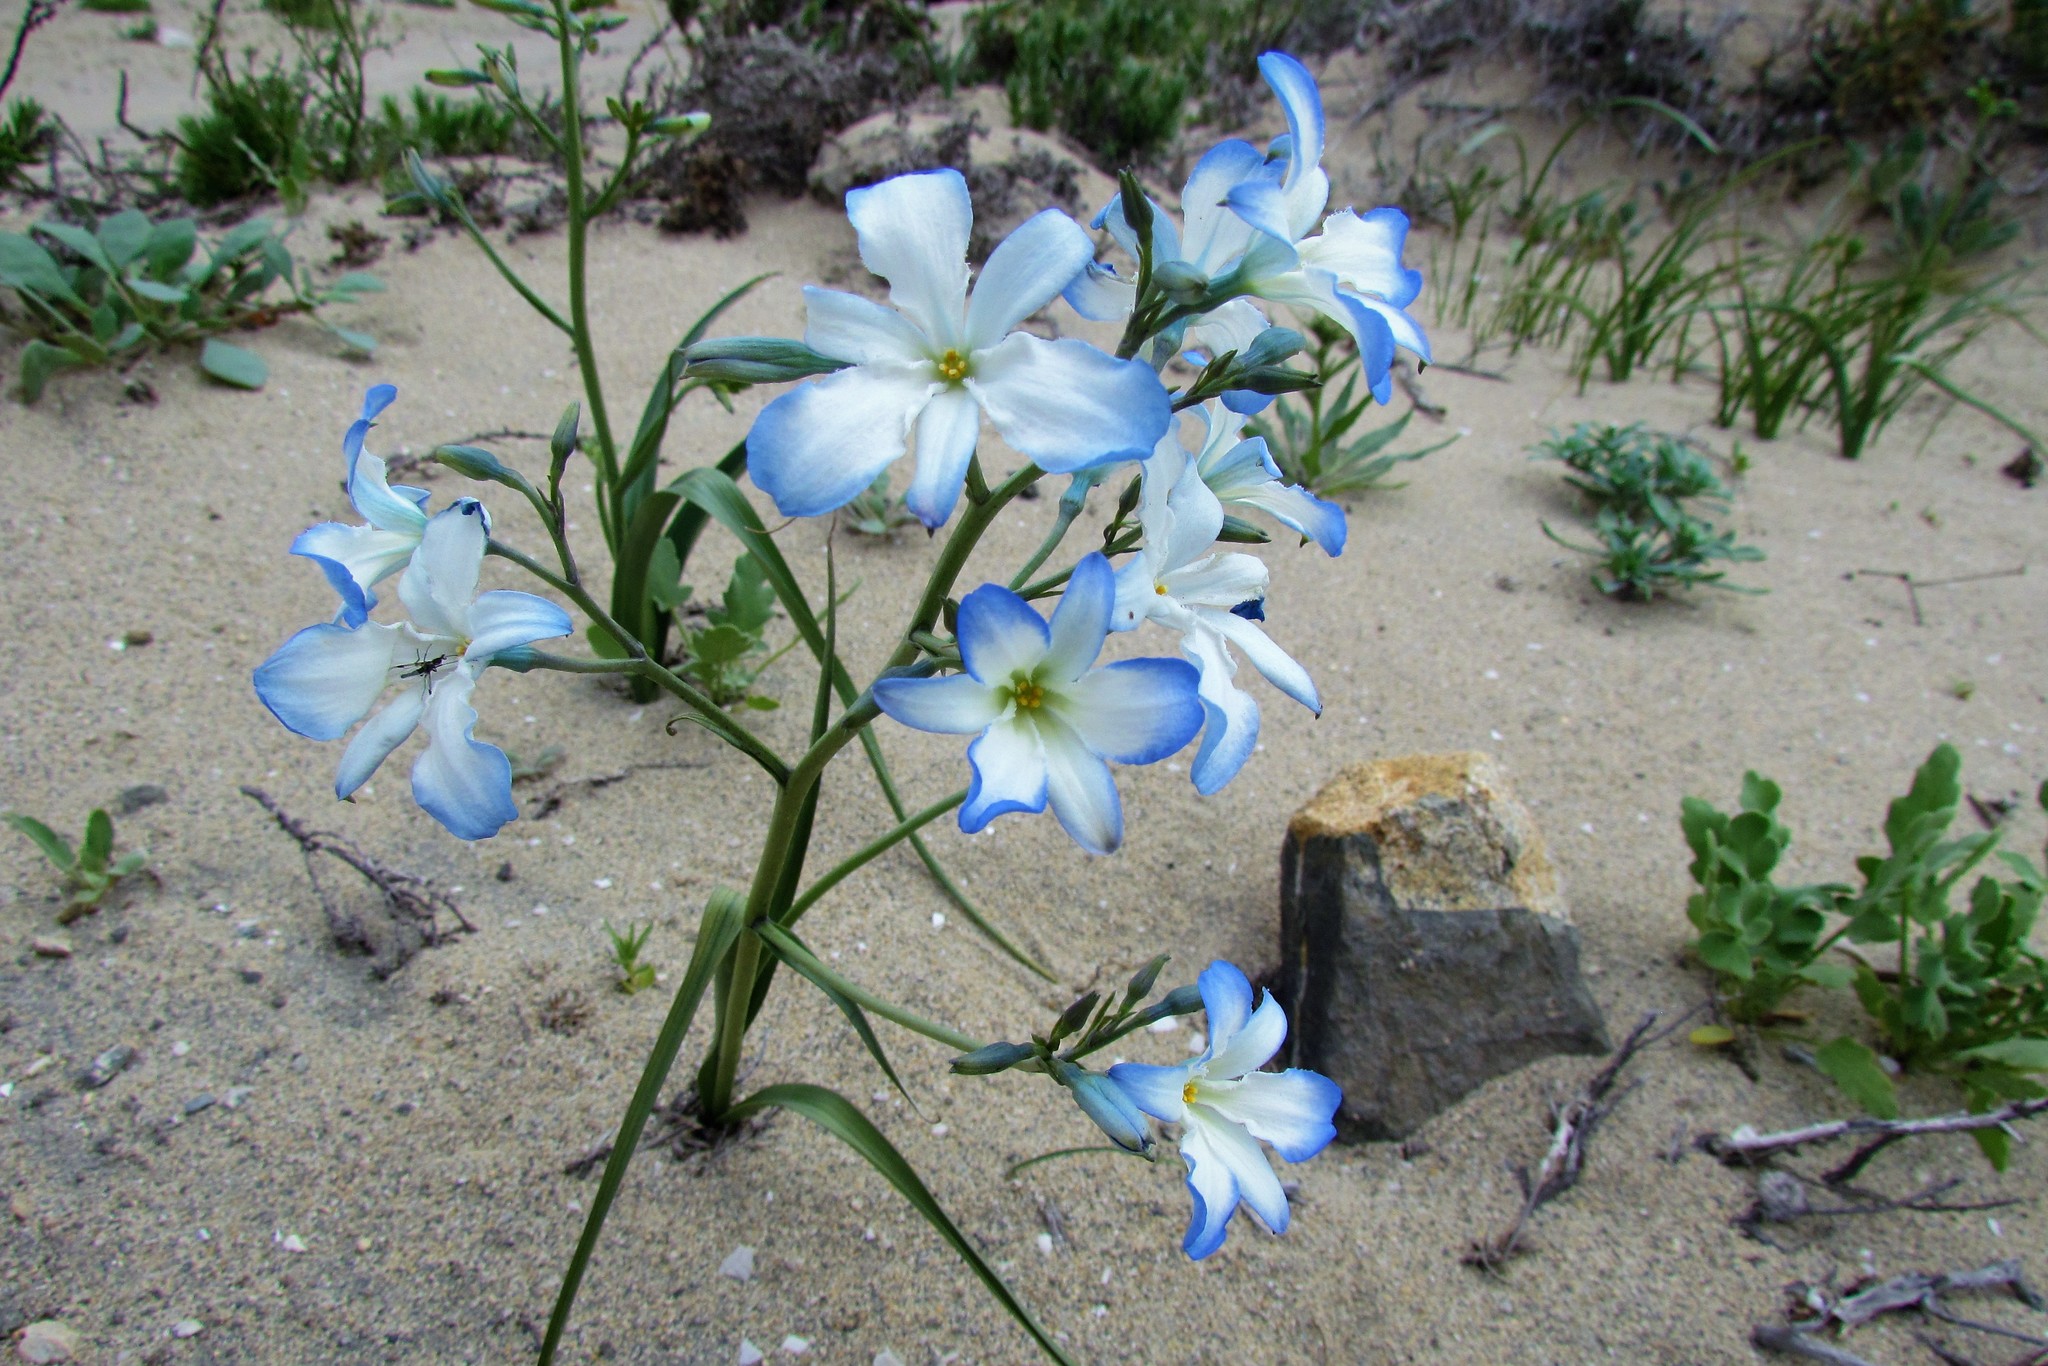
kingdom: Plantae
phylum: Tracheophyta
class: Liliopsida
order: Asparagales
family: Tecophilaeaceae
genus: Zephyra
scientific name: Zephyra elegans
